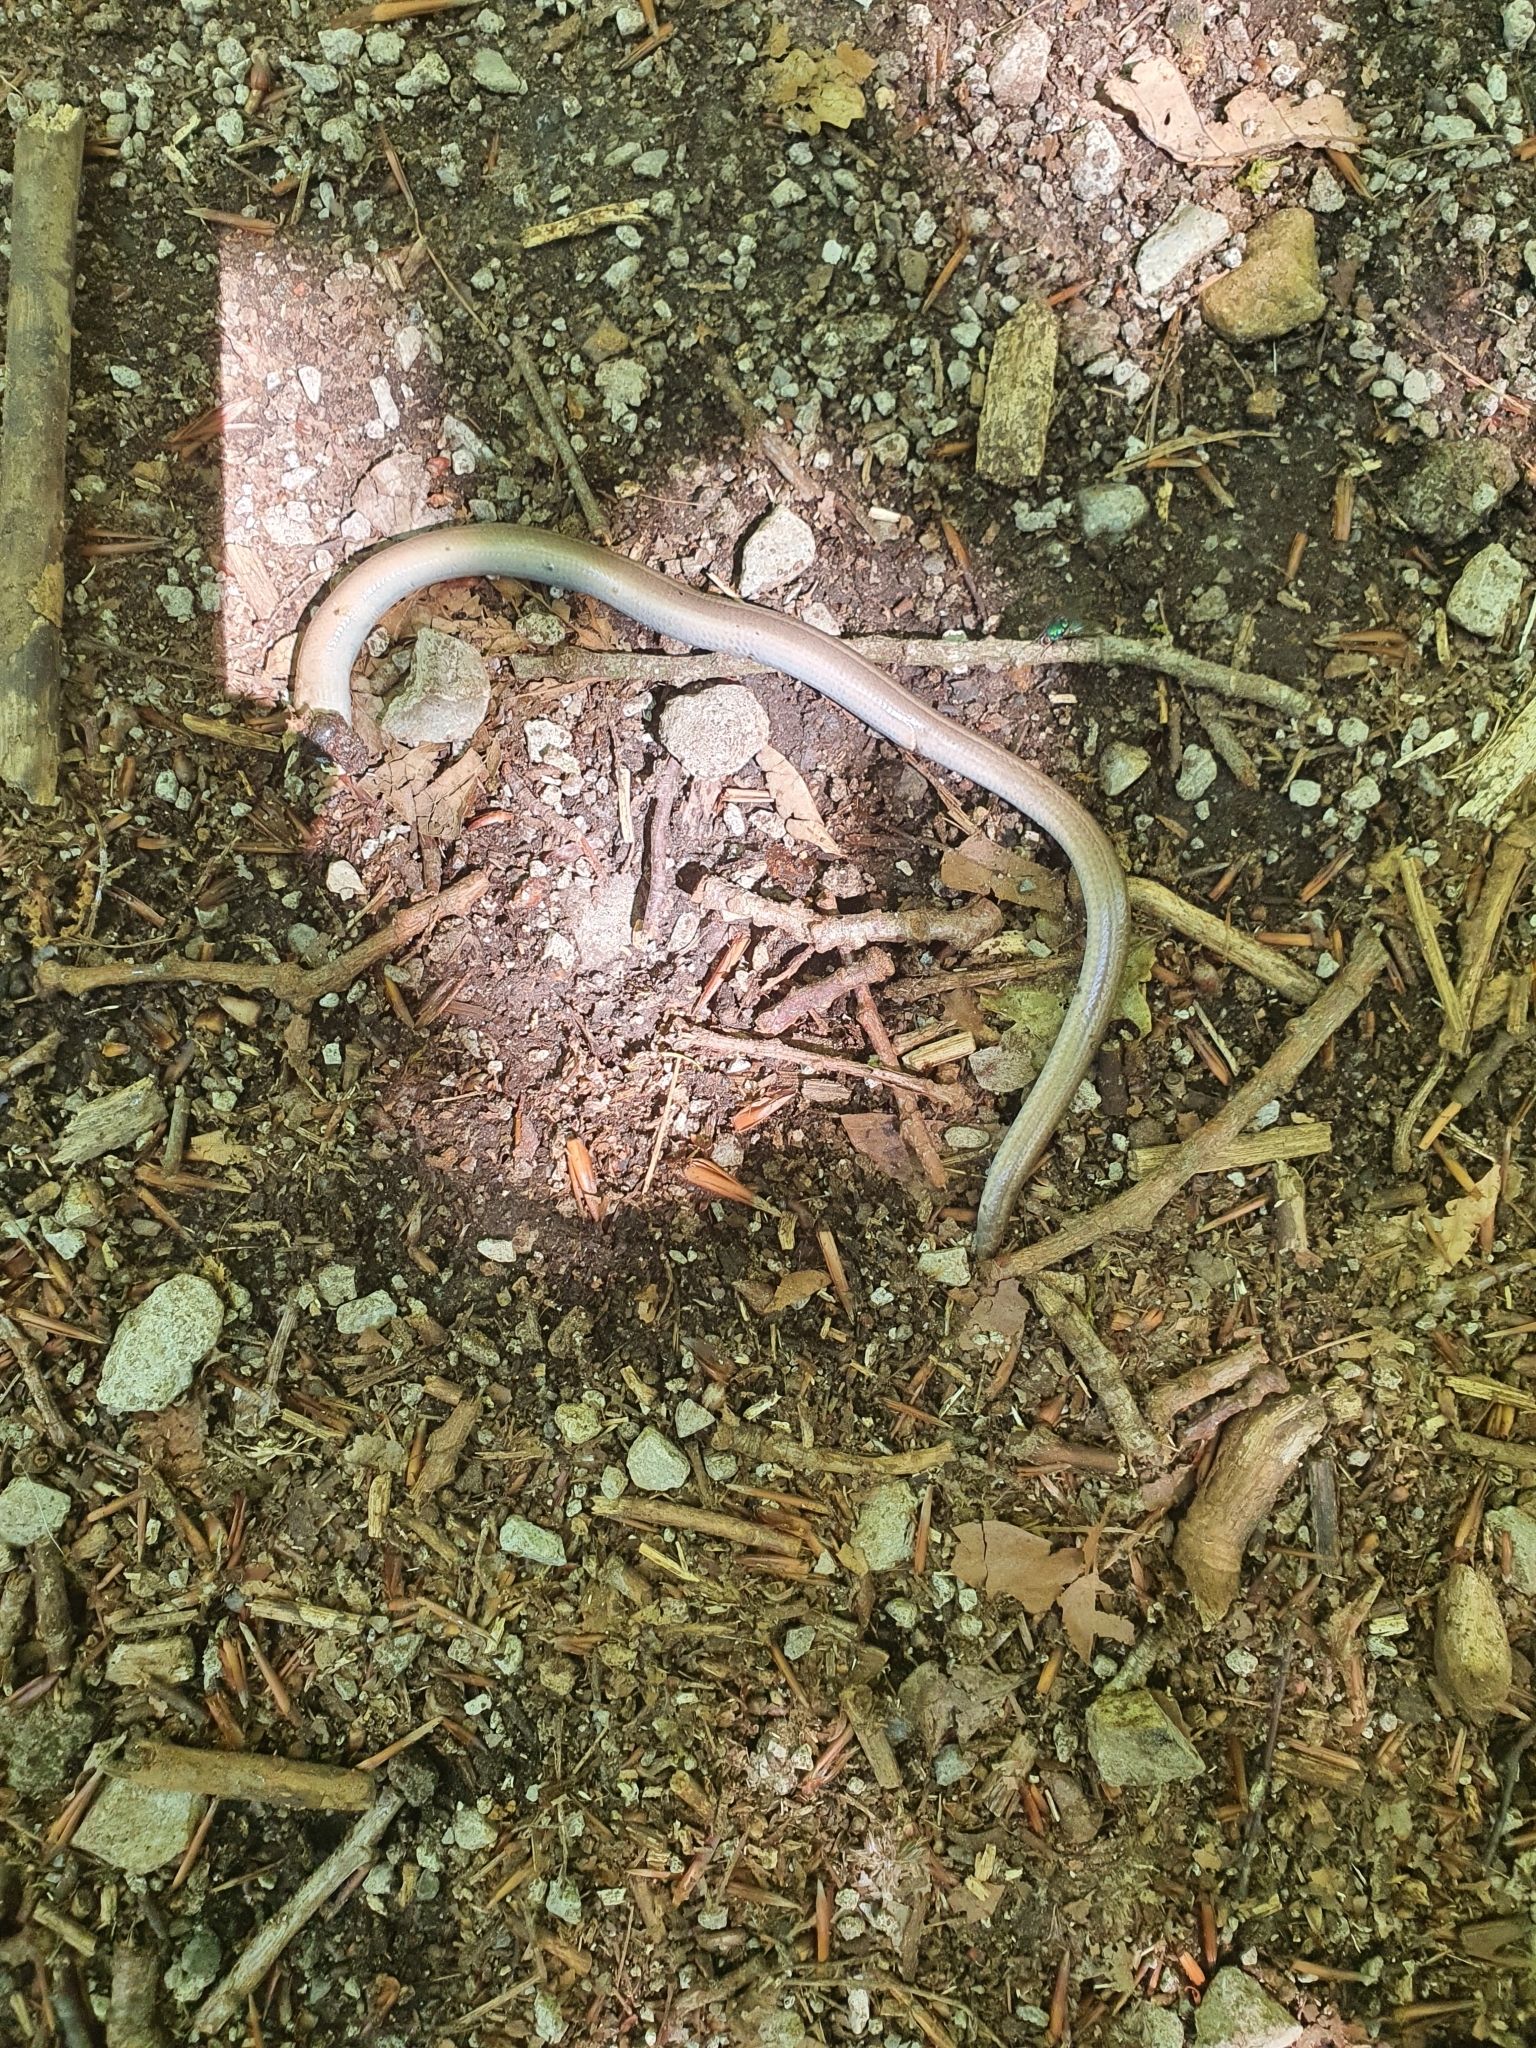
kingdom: Animalia
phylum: Chordata
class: Squamata
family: Anguidae
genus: Anguis
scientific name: Anguis fragilis
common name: Slow worm
